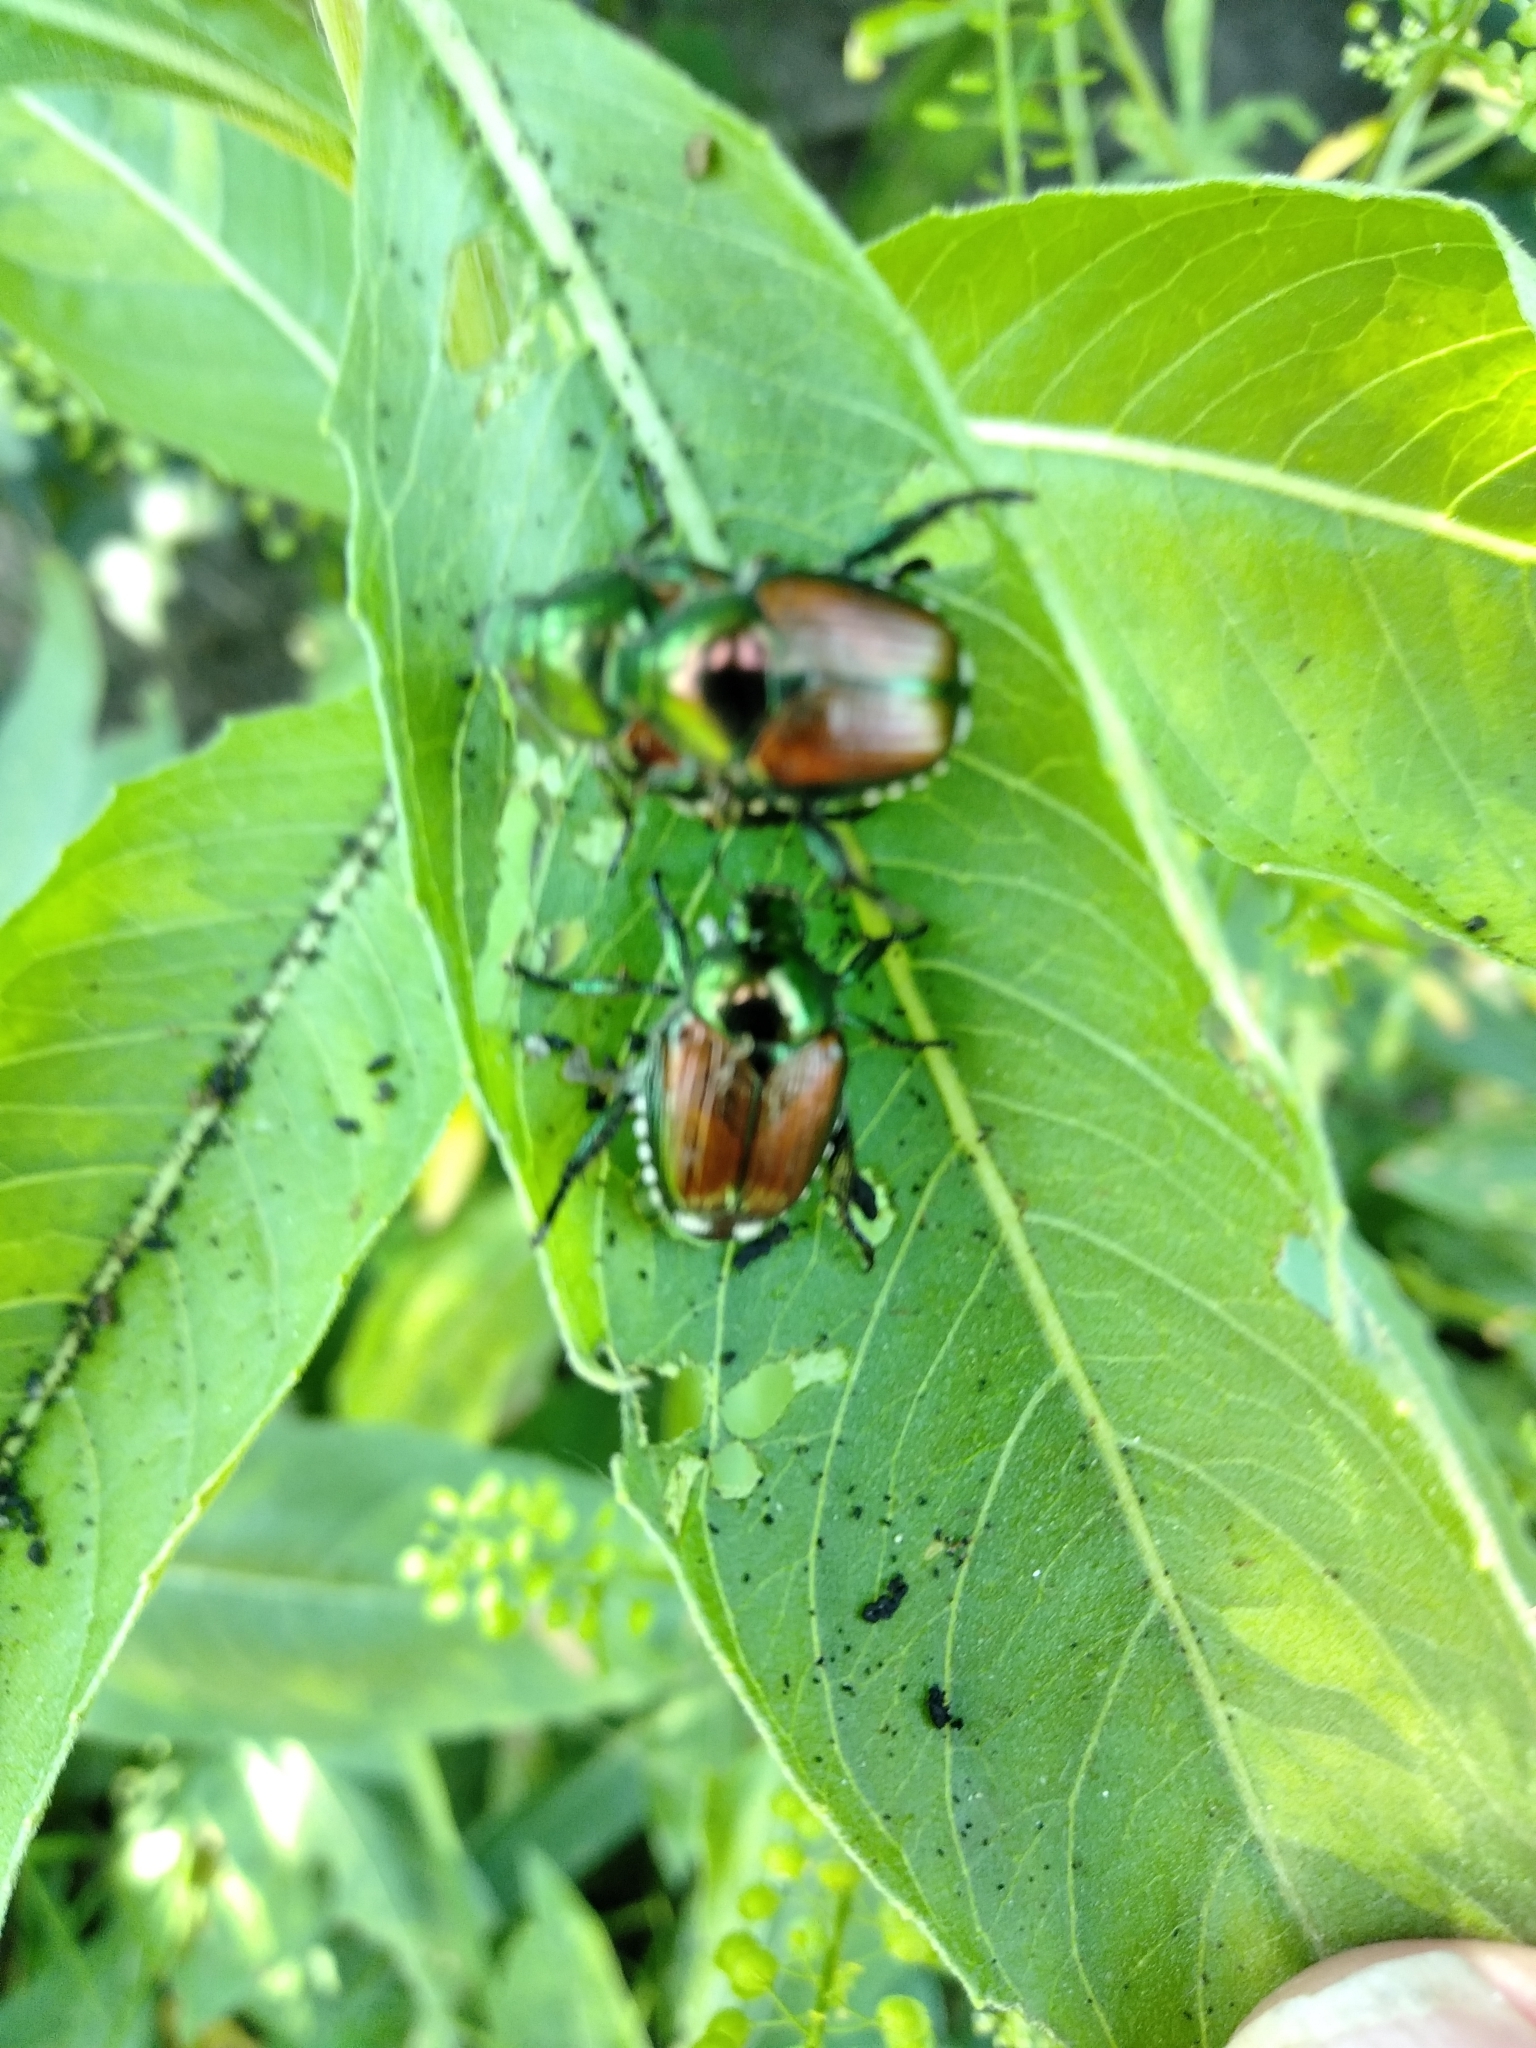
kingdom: Animalia
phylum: Arthropoda
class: Insecta
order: Coleoptera
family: Scarabaeidae
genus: Popillia
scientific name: Popillia japonica
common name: Japanese beetle
